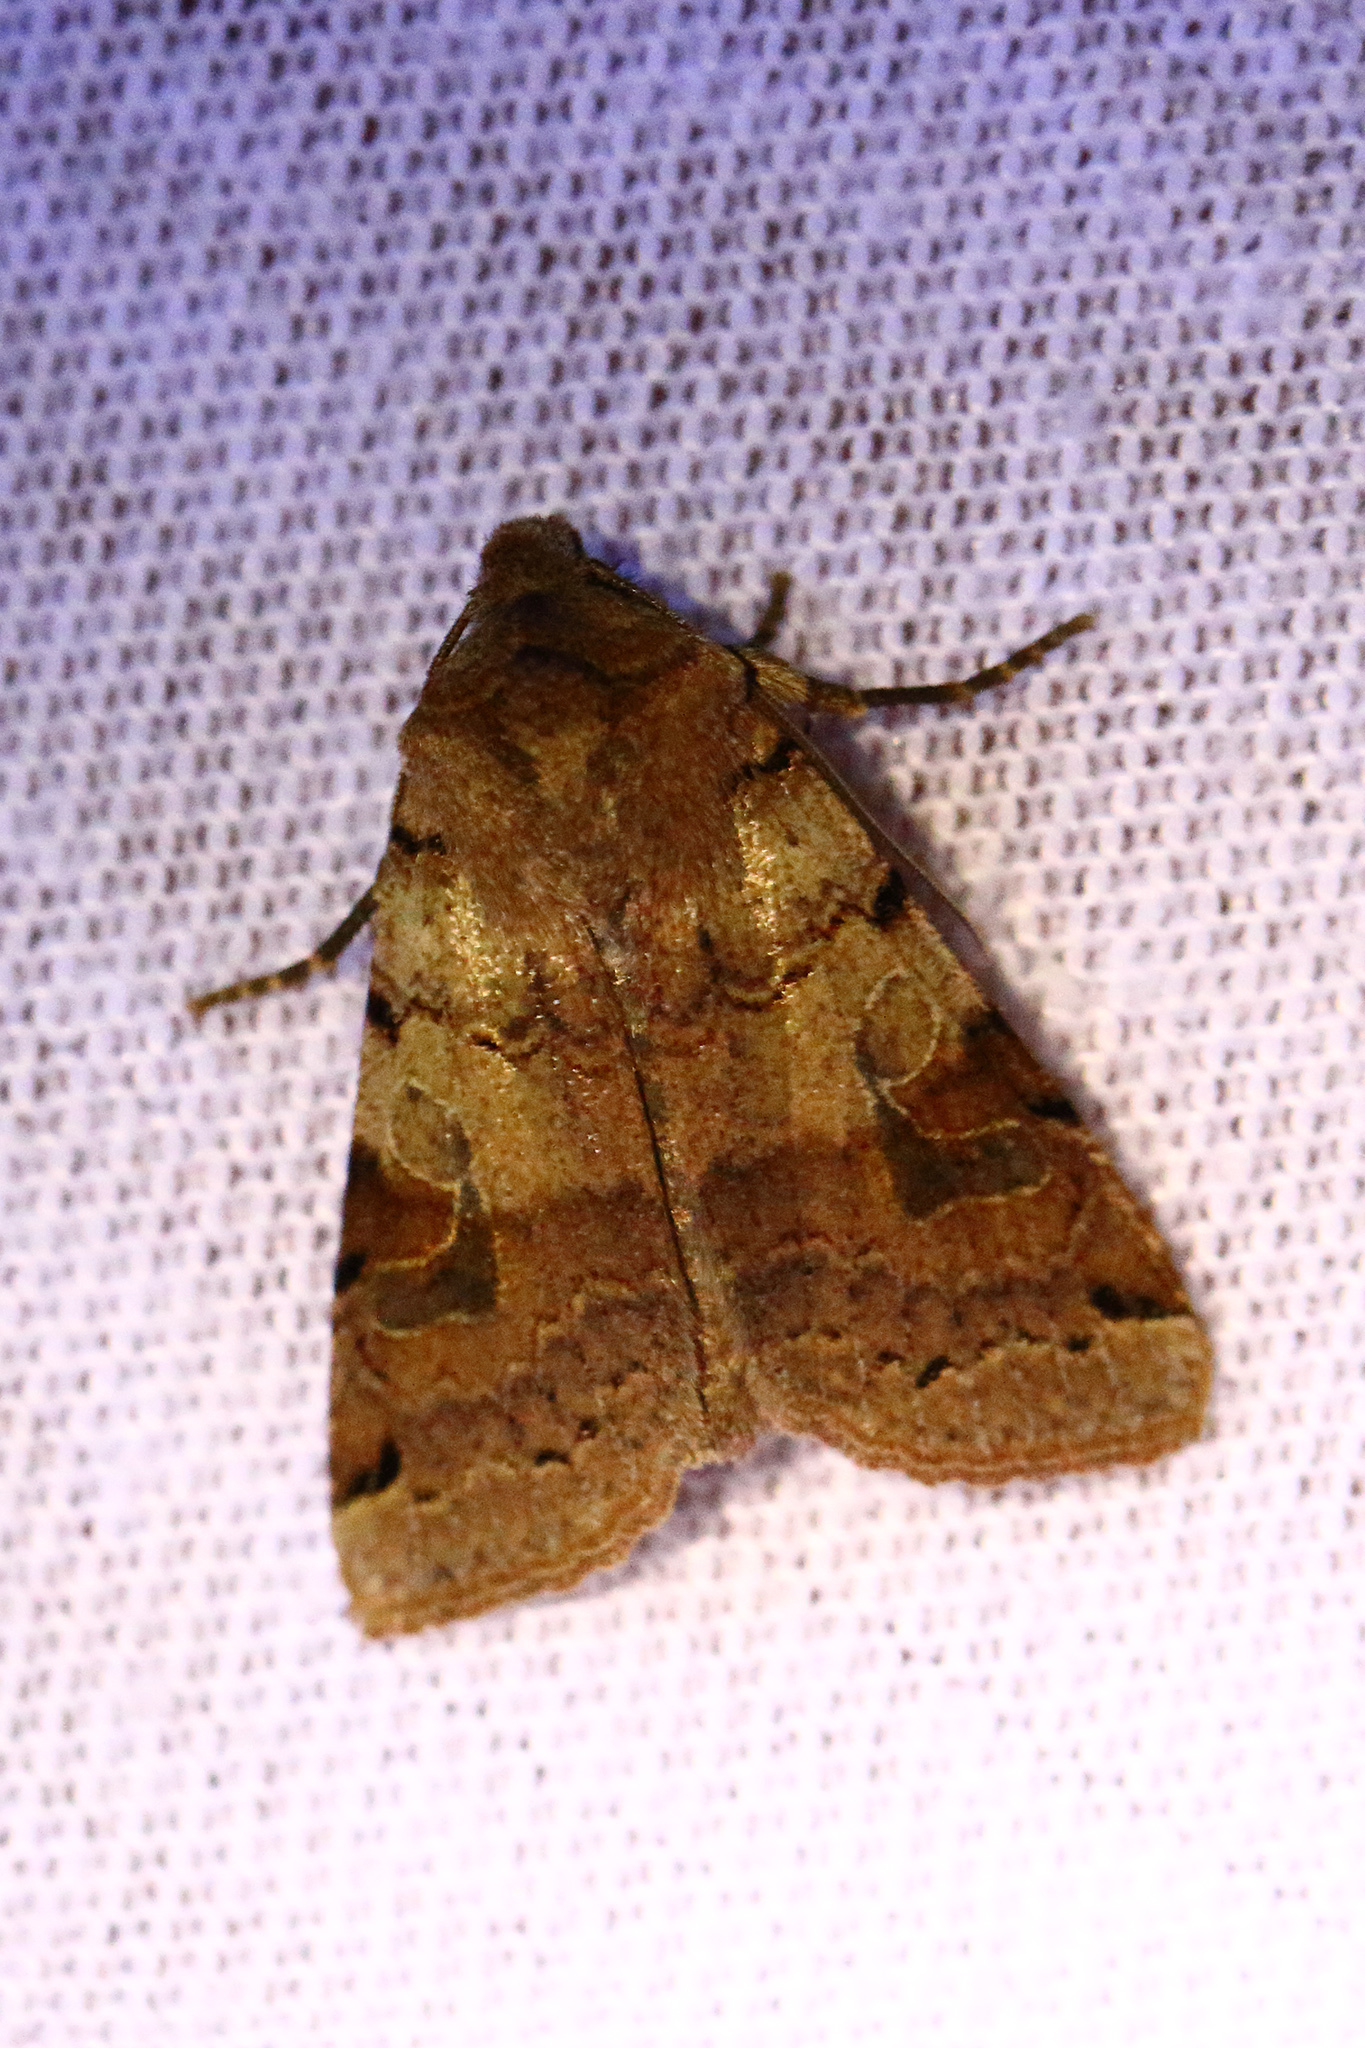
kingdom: Animalia
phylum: Arthropoda
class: Insecta
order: Lepidoptera
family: Noctuidae
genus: Agrochola
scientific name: Agrochola litura
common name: Brown-spot pinion
